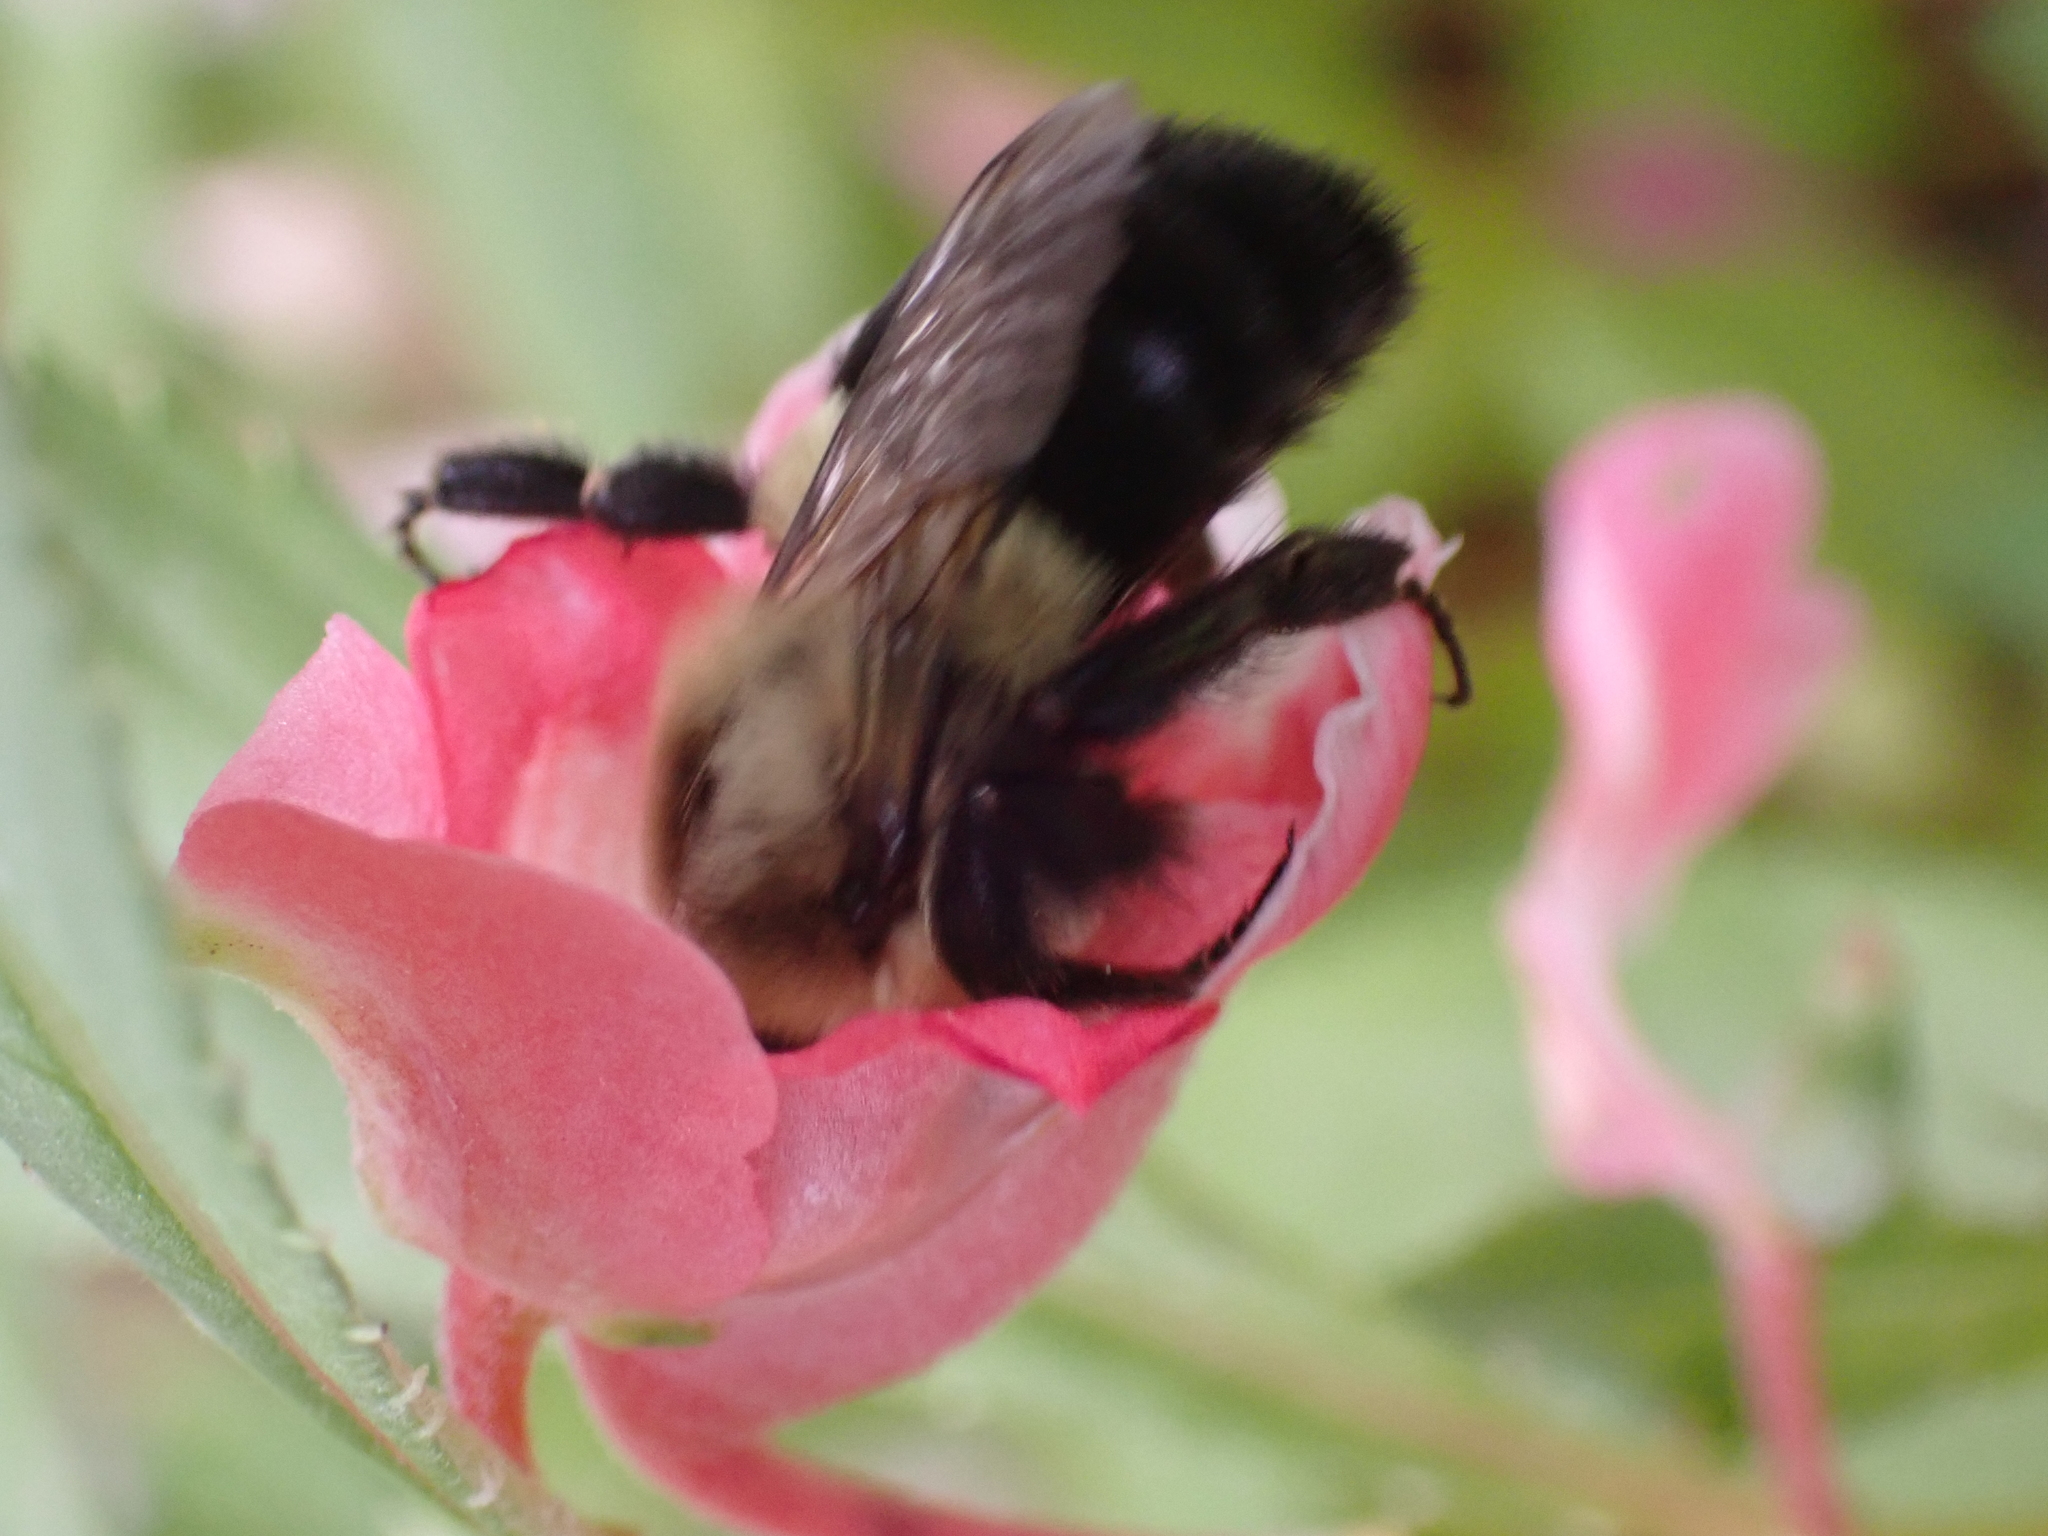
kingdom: Animalia
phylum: Arthropoda
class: Insecta
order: Hymenoptera
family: Apidae
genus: Bombus
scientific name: Bombus impatiens
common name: Common eastern bumble bee
